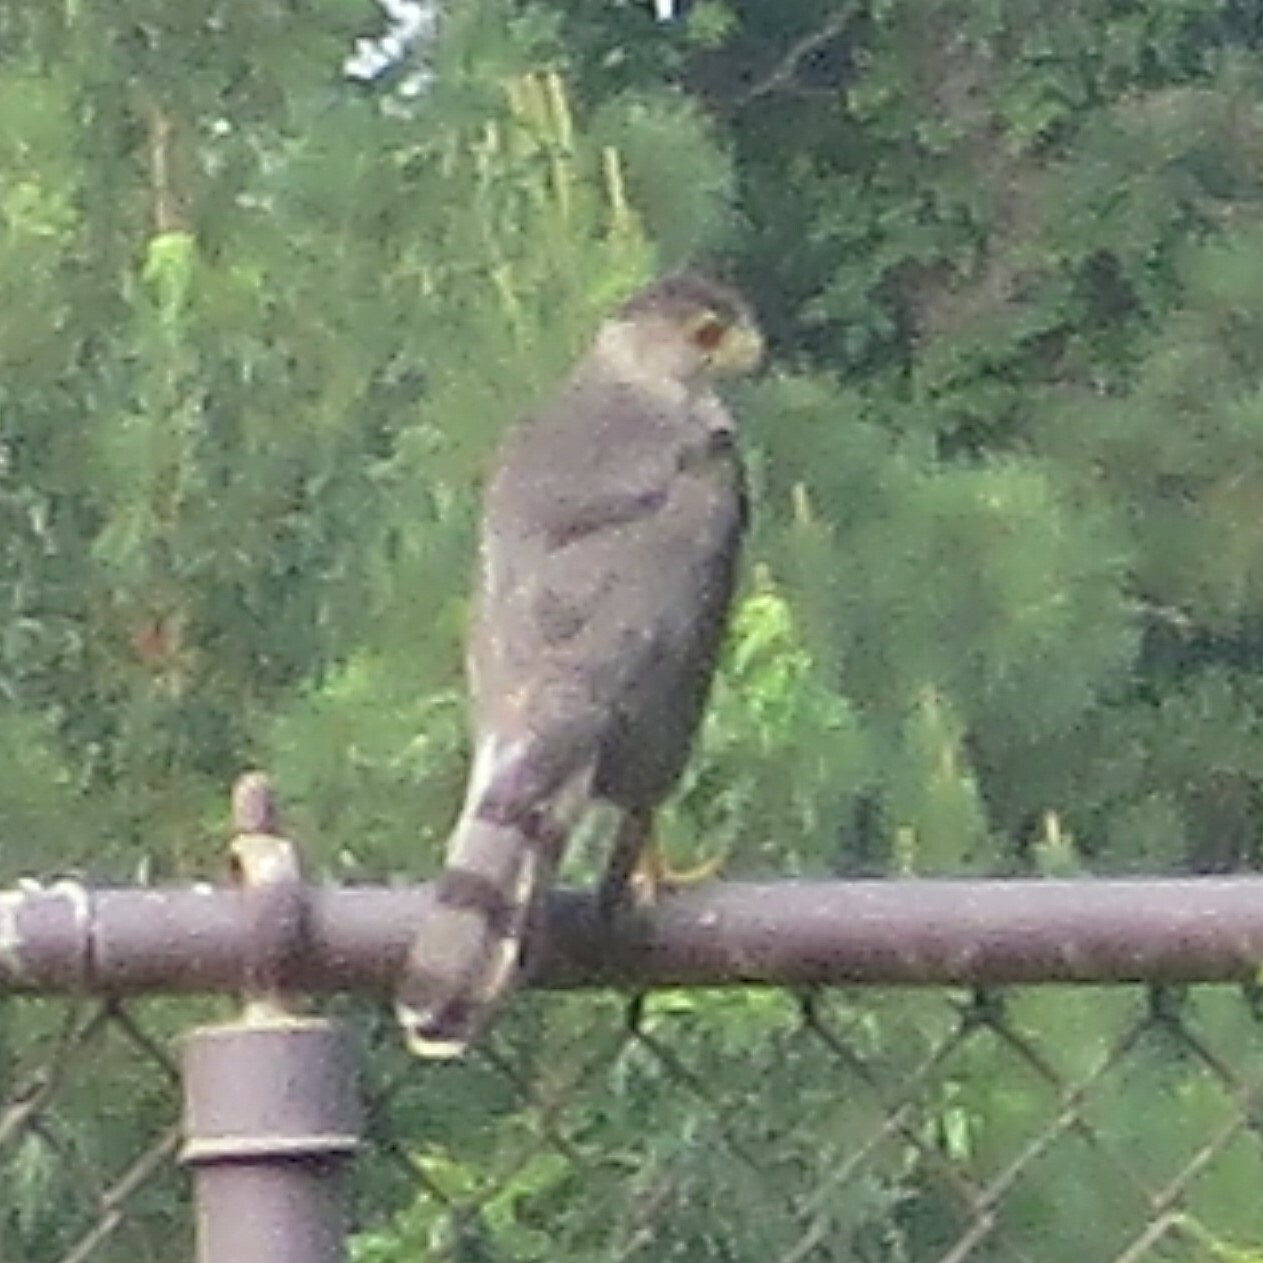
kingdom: Animalia
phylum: Chordata
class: Aves
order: Accipitriformes
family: Accipitridae
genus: Accipiter
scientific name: Accipiter cooperii
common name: Cooper's hawk
